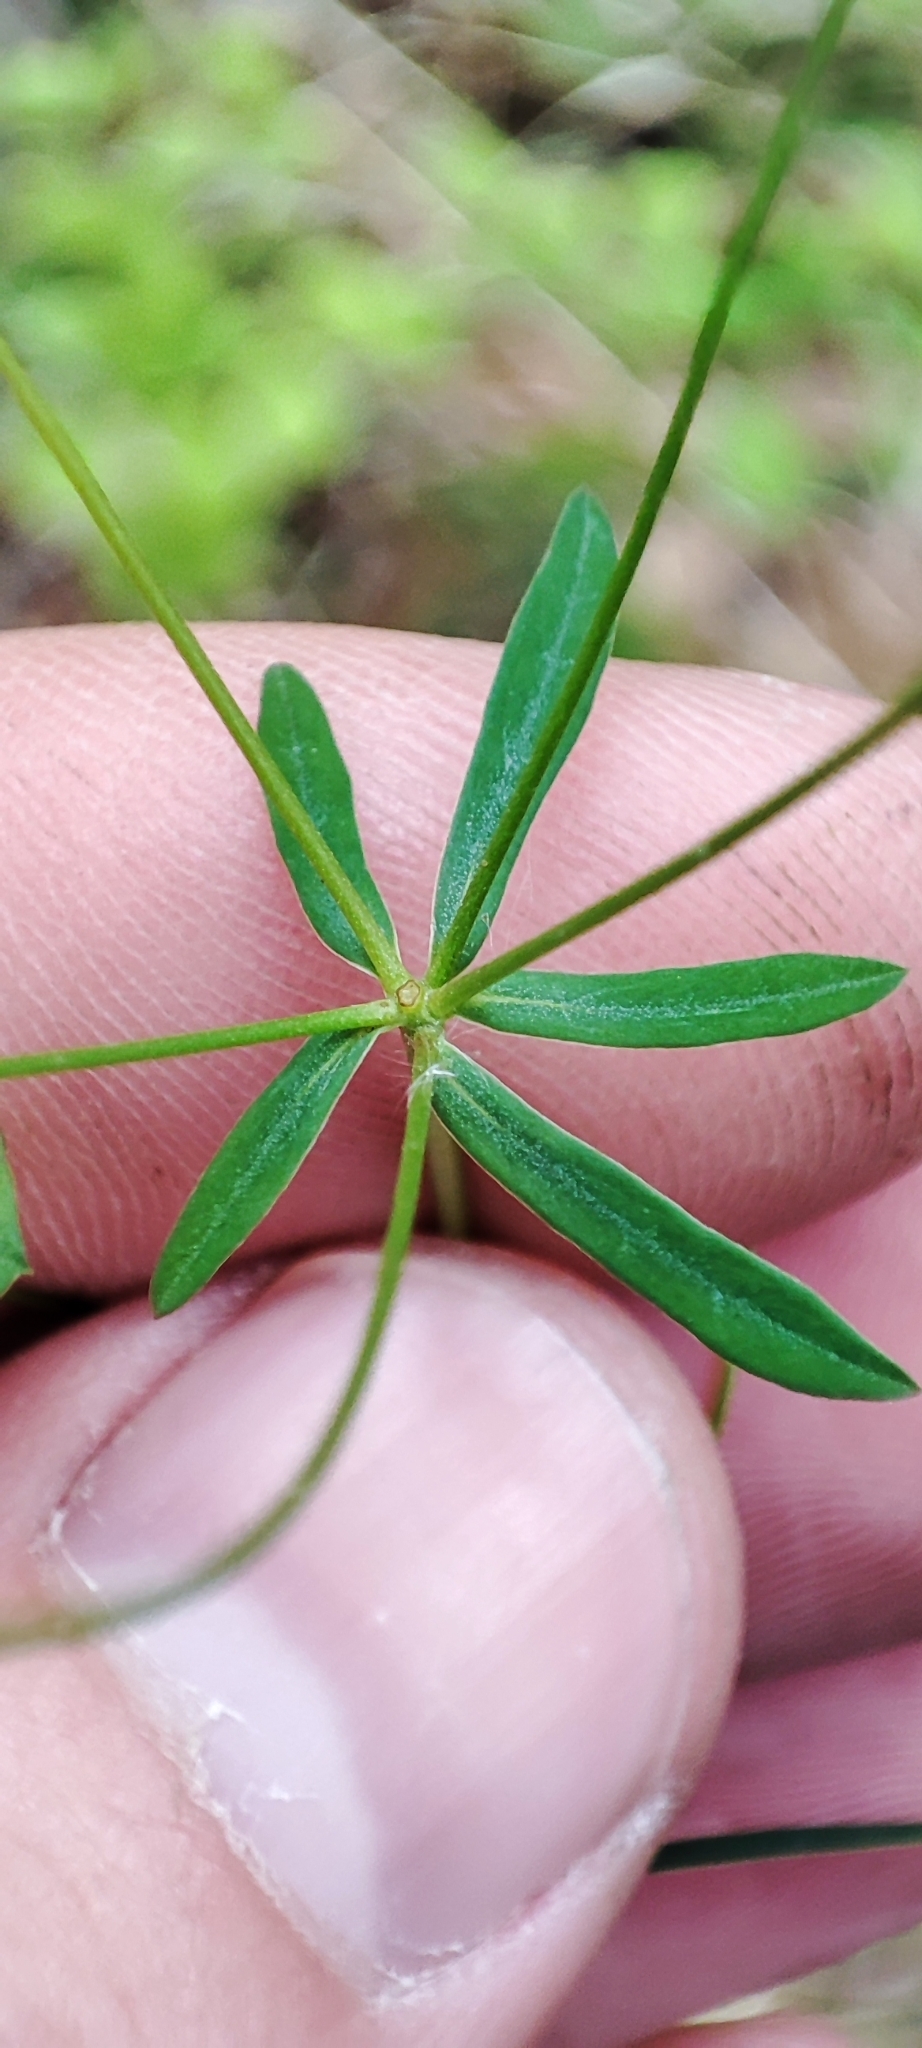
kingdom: Plantae
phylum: Tracheophyta
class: Magnoliopsida
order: Malpighiales
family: Euphorbiaceae
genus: Euphorbia
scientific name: Euphorbia borealis
